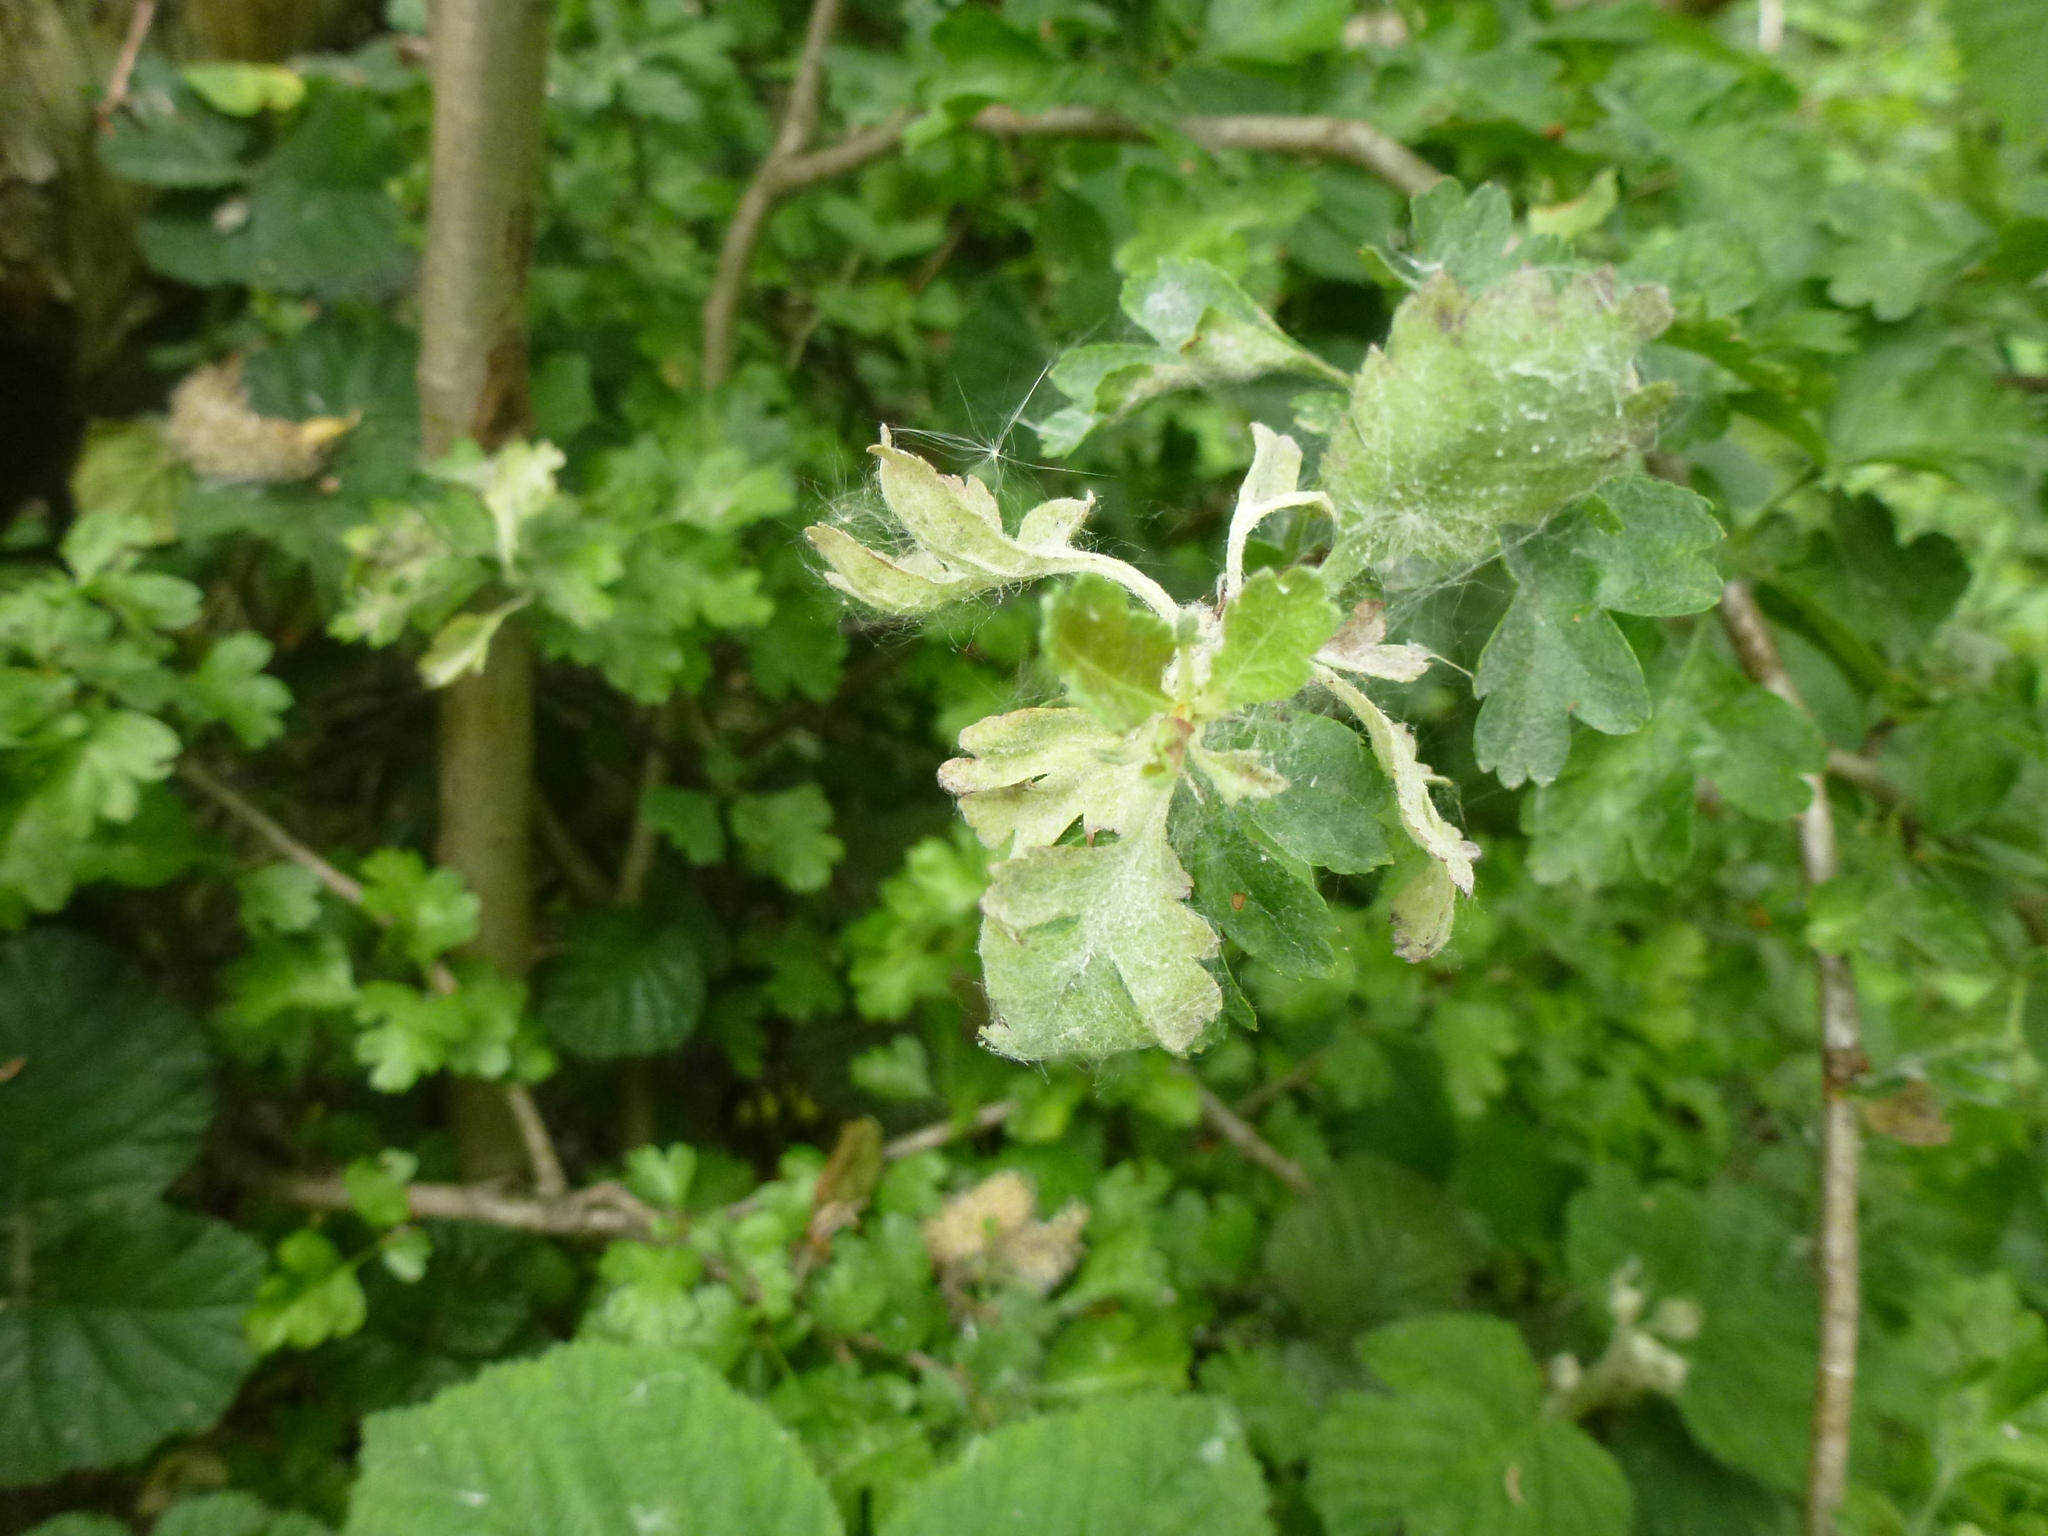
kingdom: Fungi
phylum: Ascomycota
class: Leotiomycetes
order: Helotiales
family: Erysiphaceae
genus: Podosphaera
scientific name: Podosphaera clandestina
